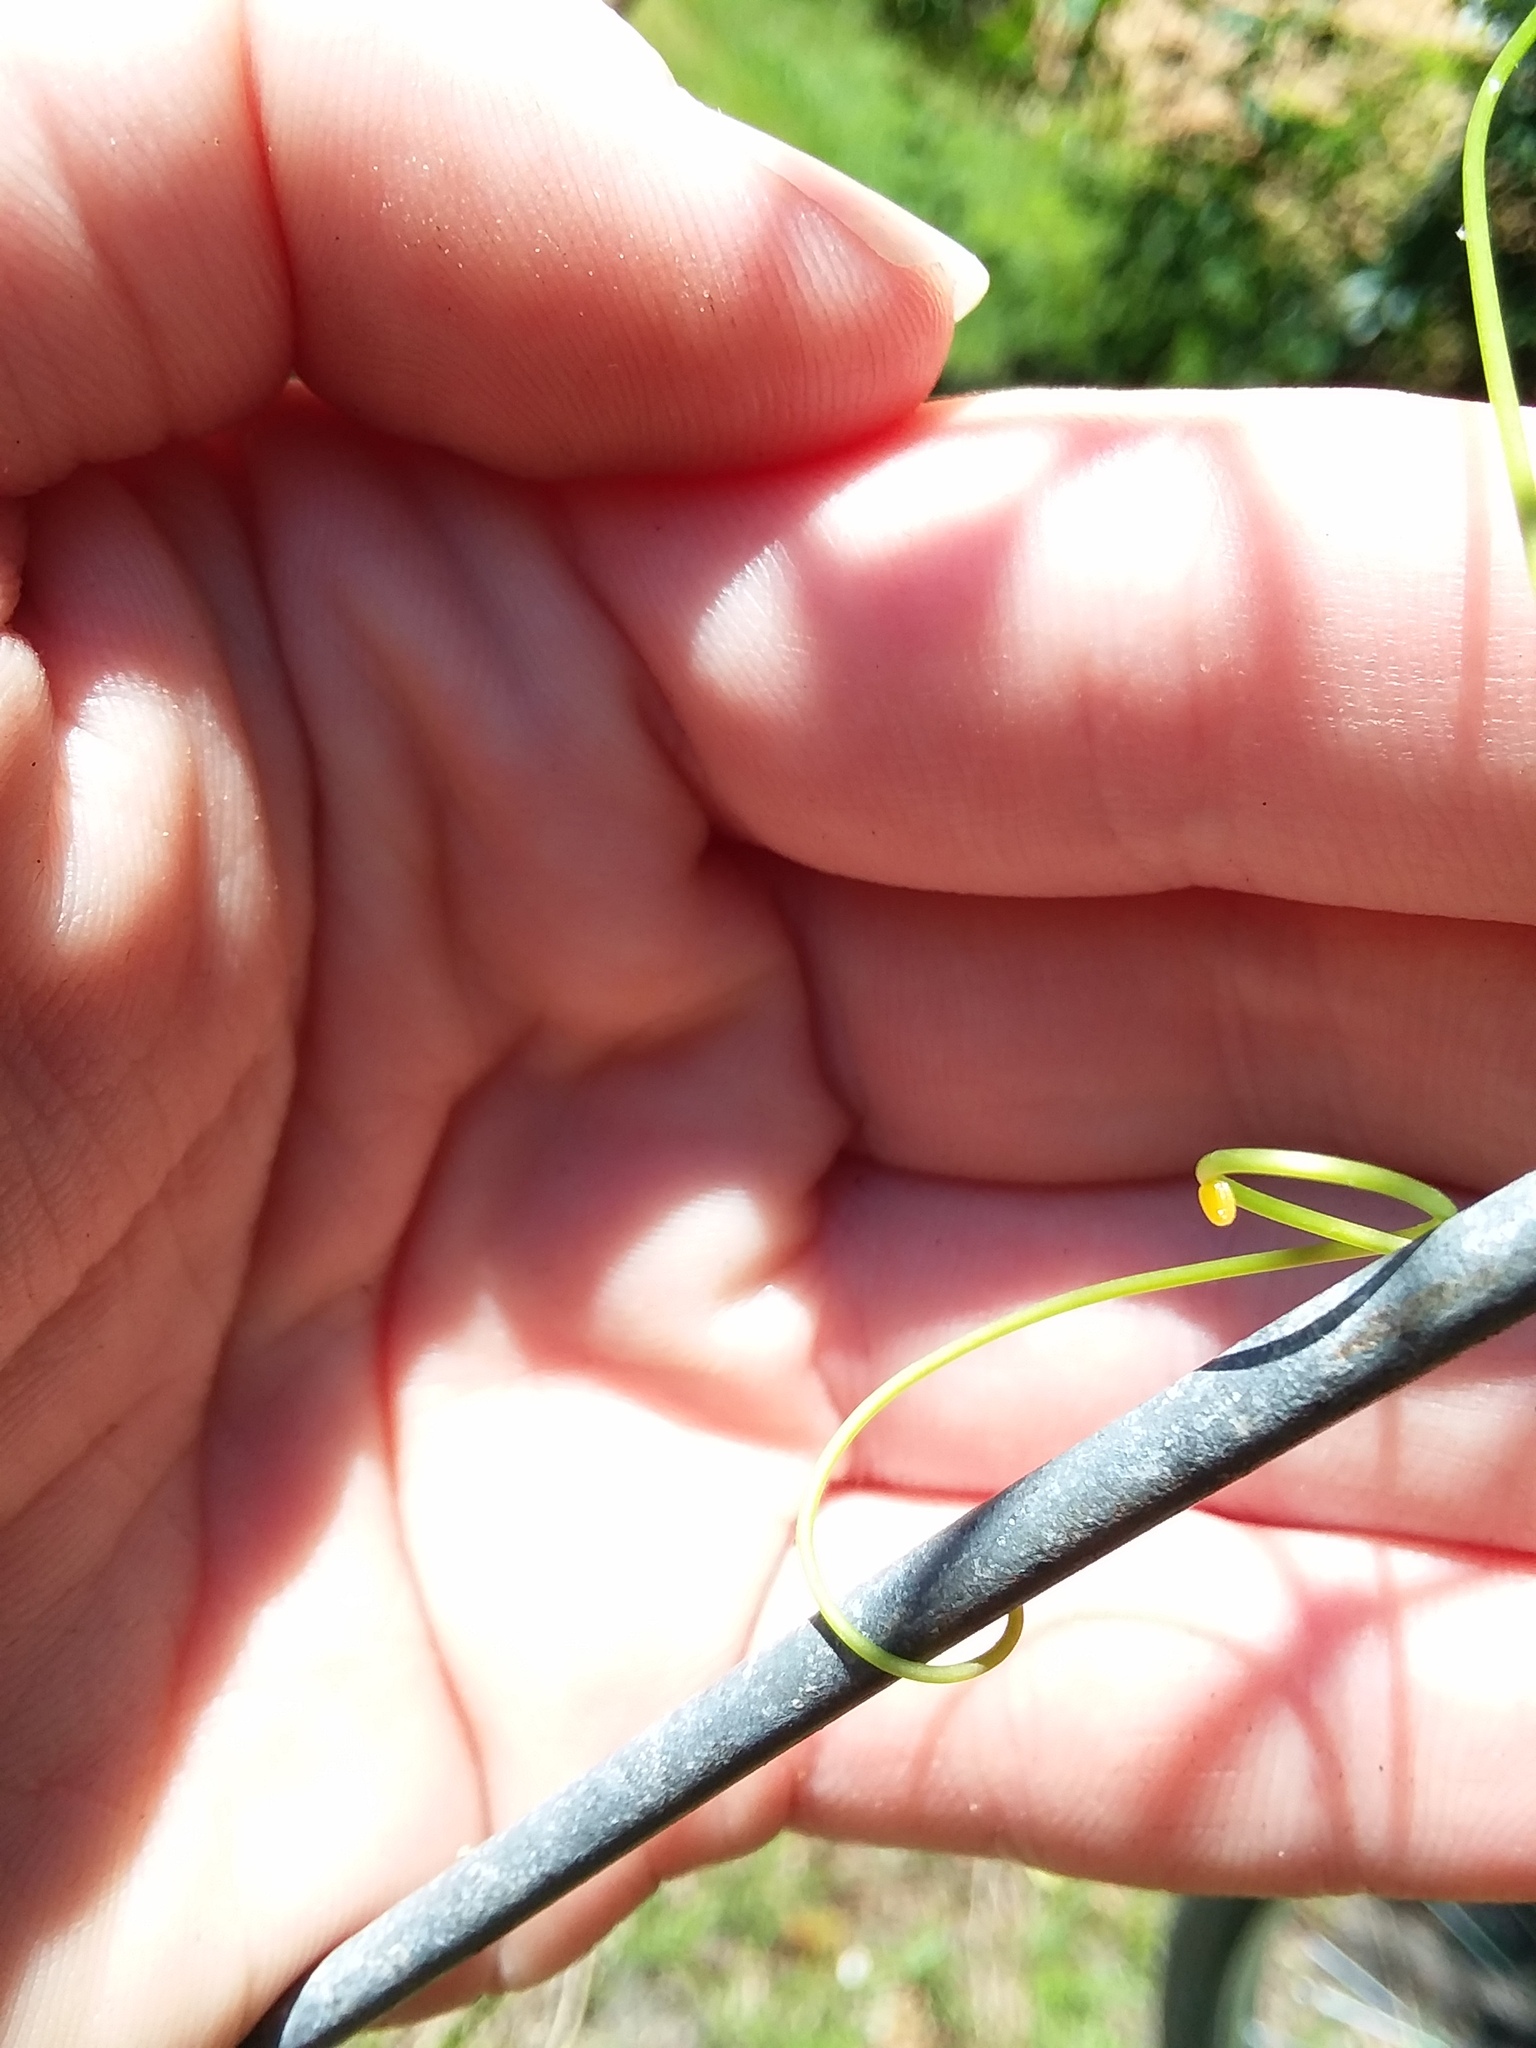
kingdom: Animalia
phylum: Arthropoda
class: Insecta
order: Lepidoptera
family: Nymphalidae
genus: Dione
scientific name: Dione vanillae
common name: Gulf fritillary
